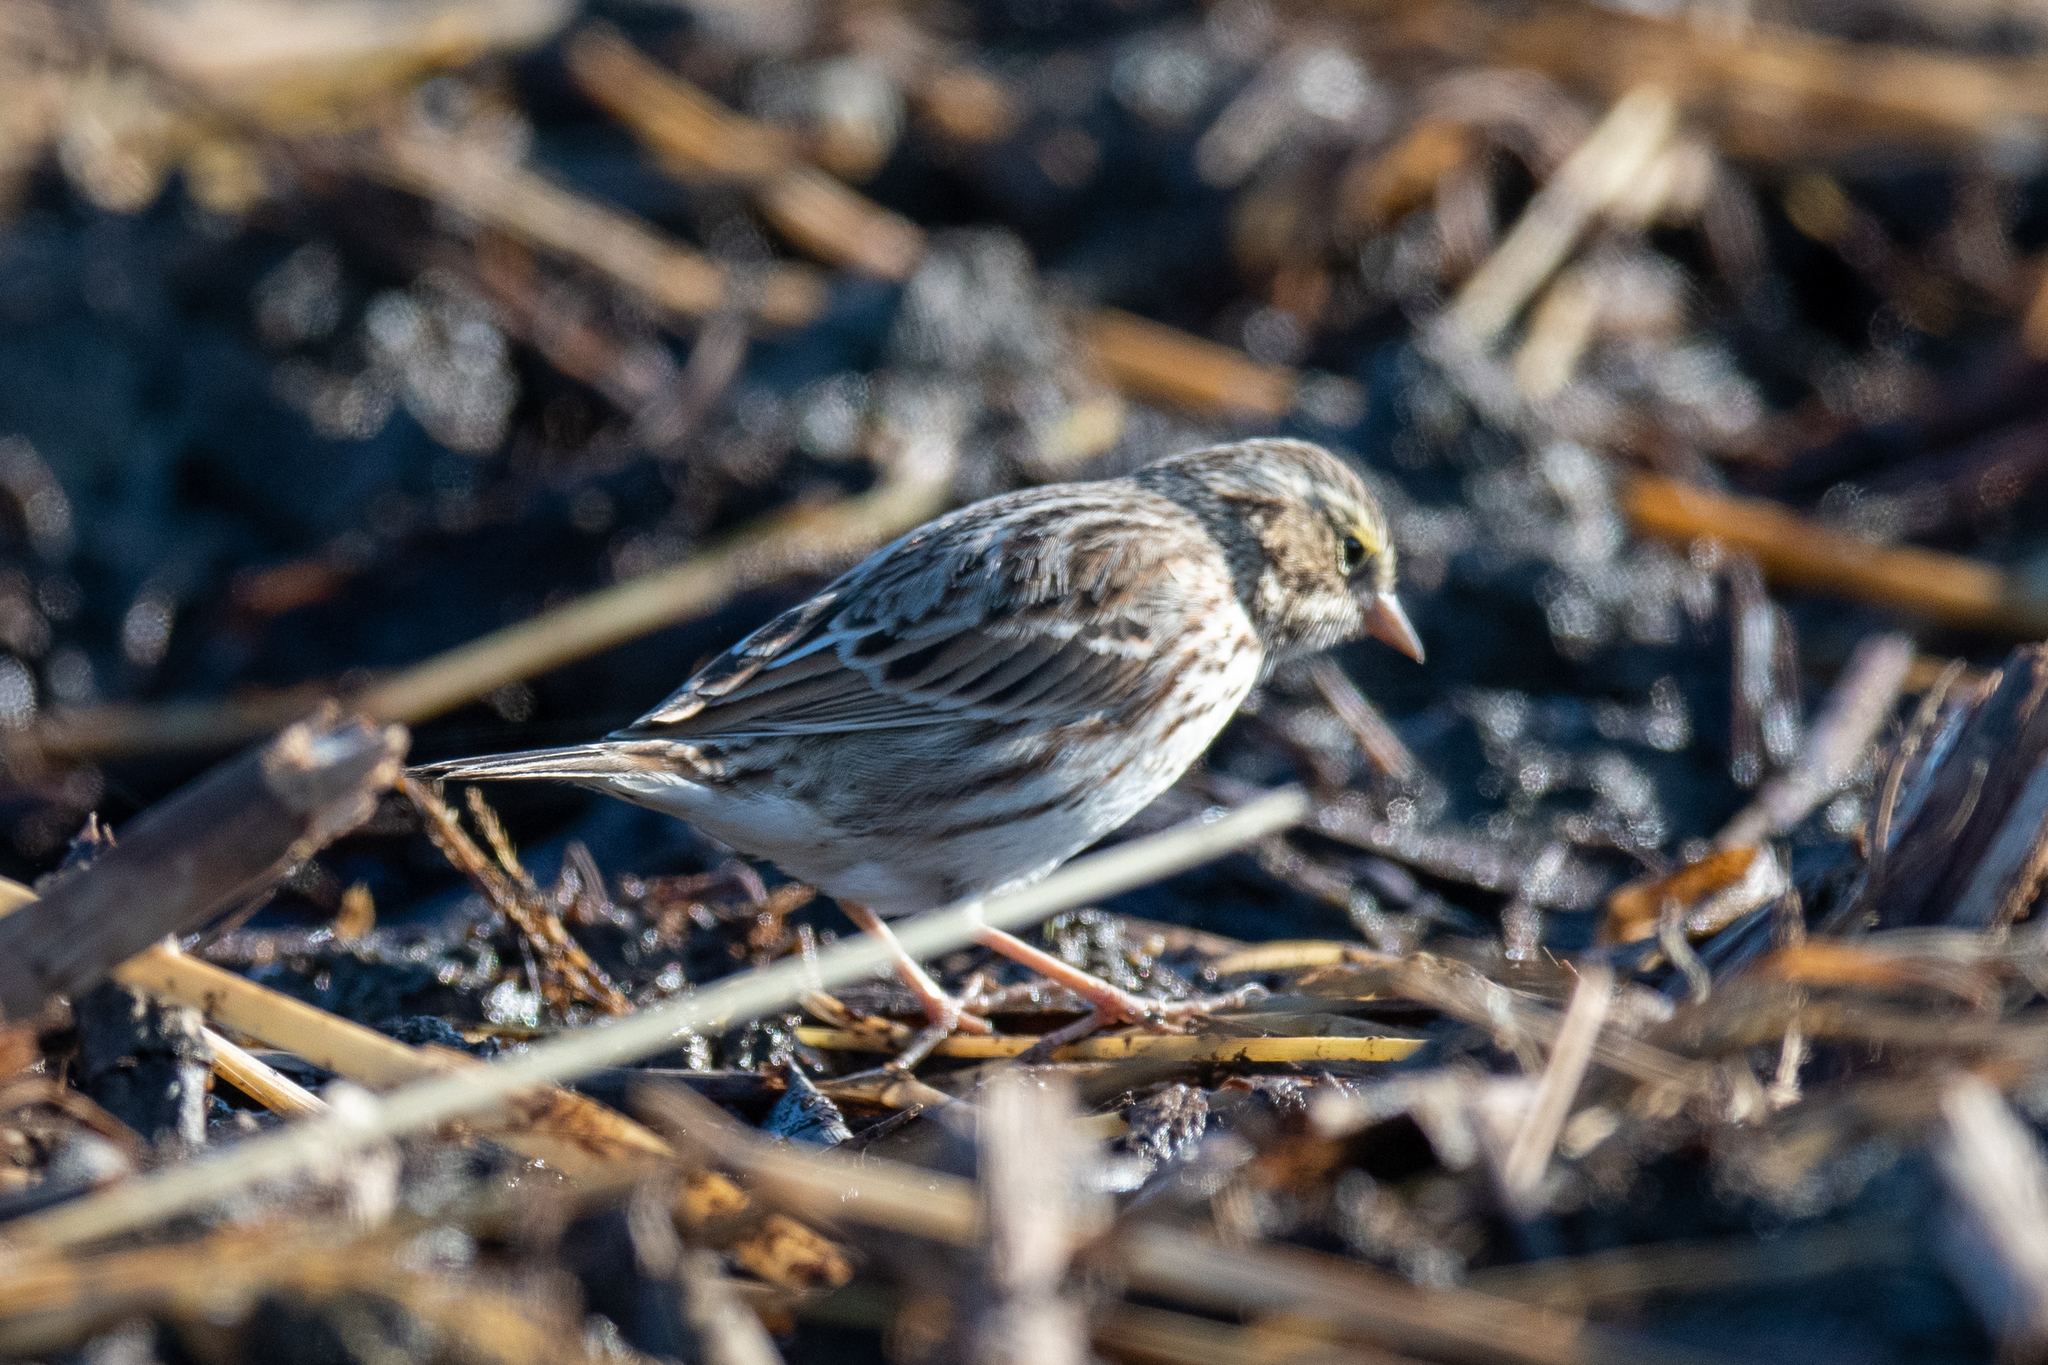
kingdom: Animalia
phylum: Chordata
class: Aves
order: Passeriformes
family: Passerellidae
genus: Passerculus
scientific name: Passerculus sandwichensis
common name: Savannah sparrow
